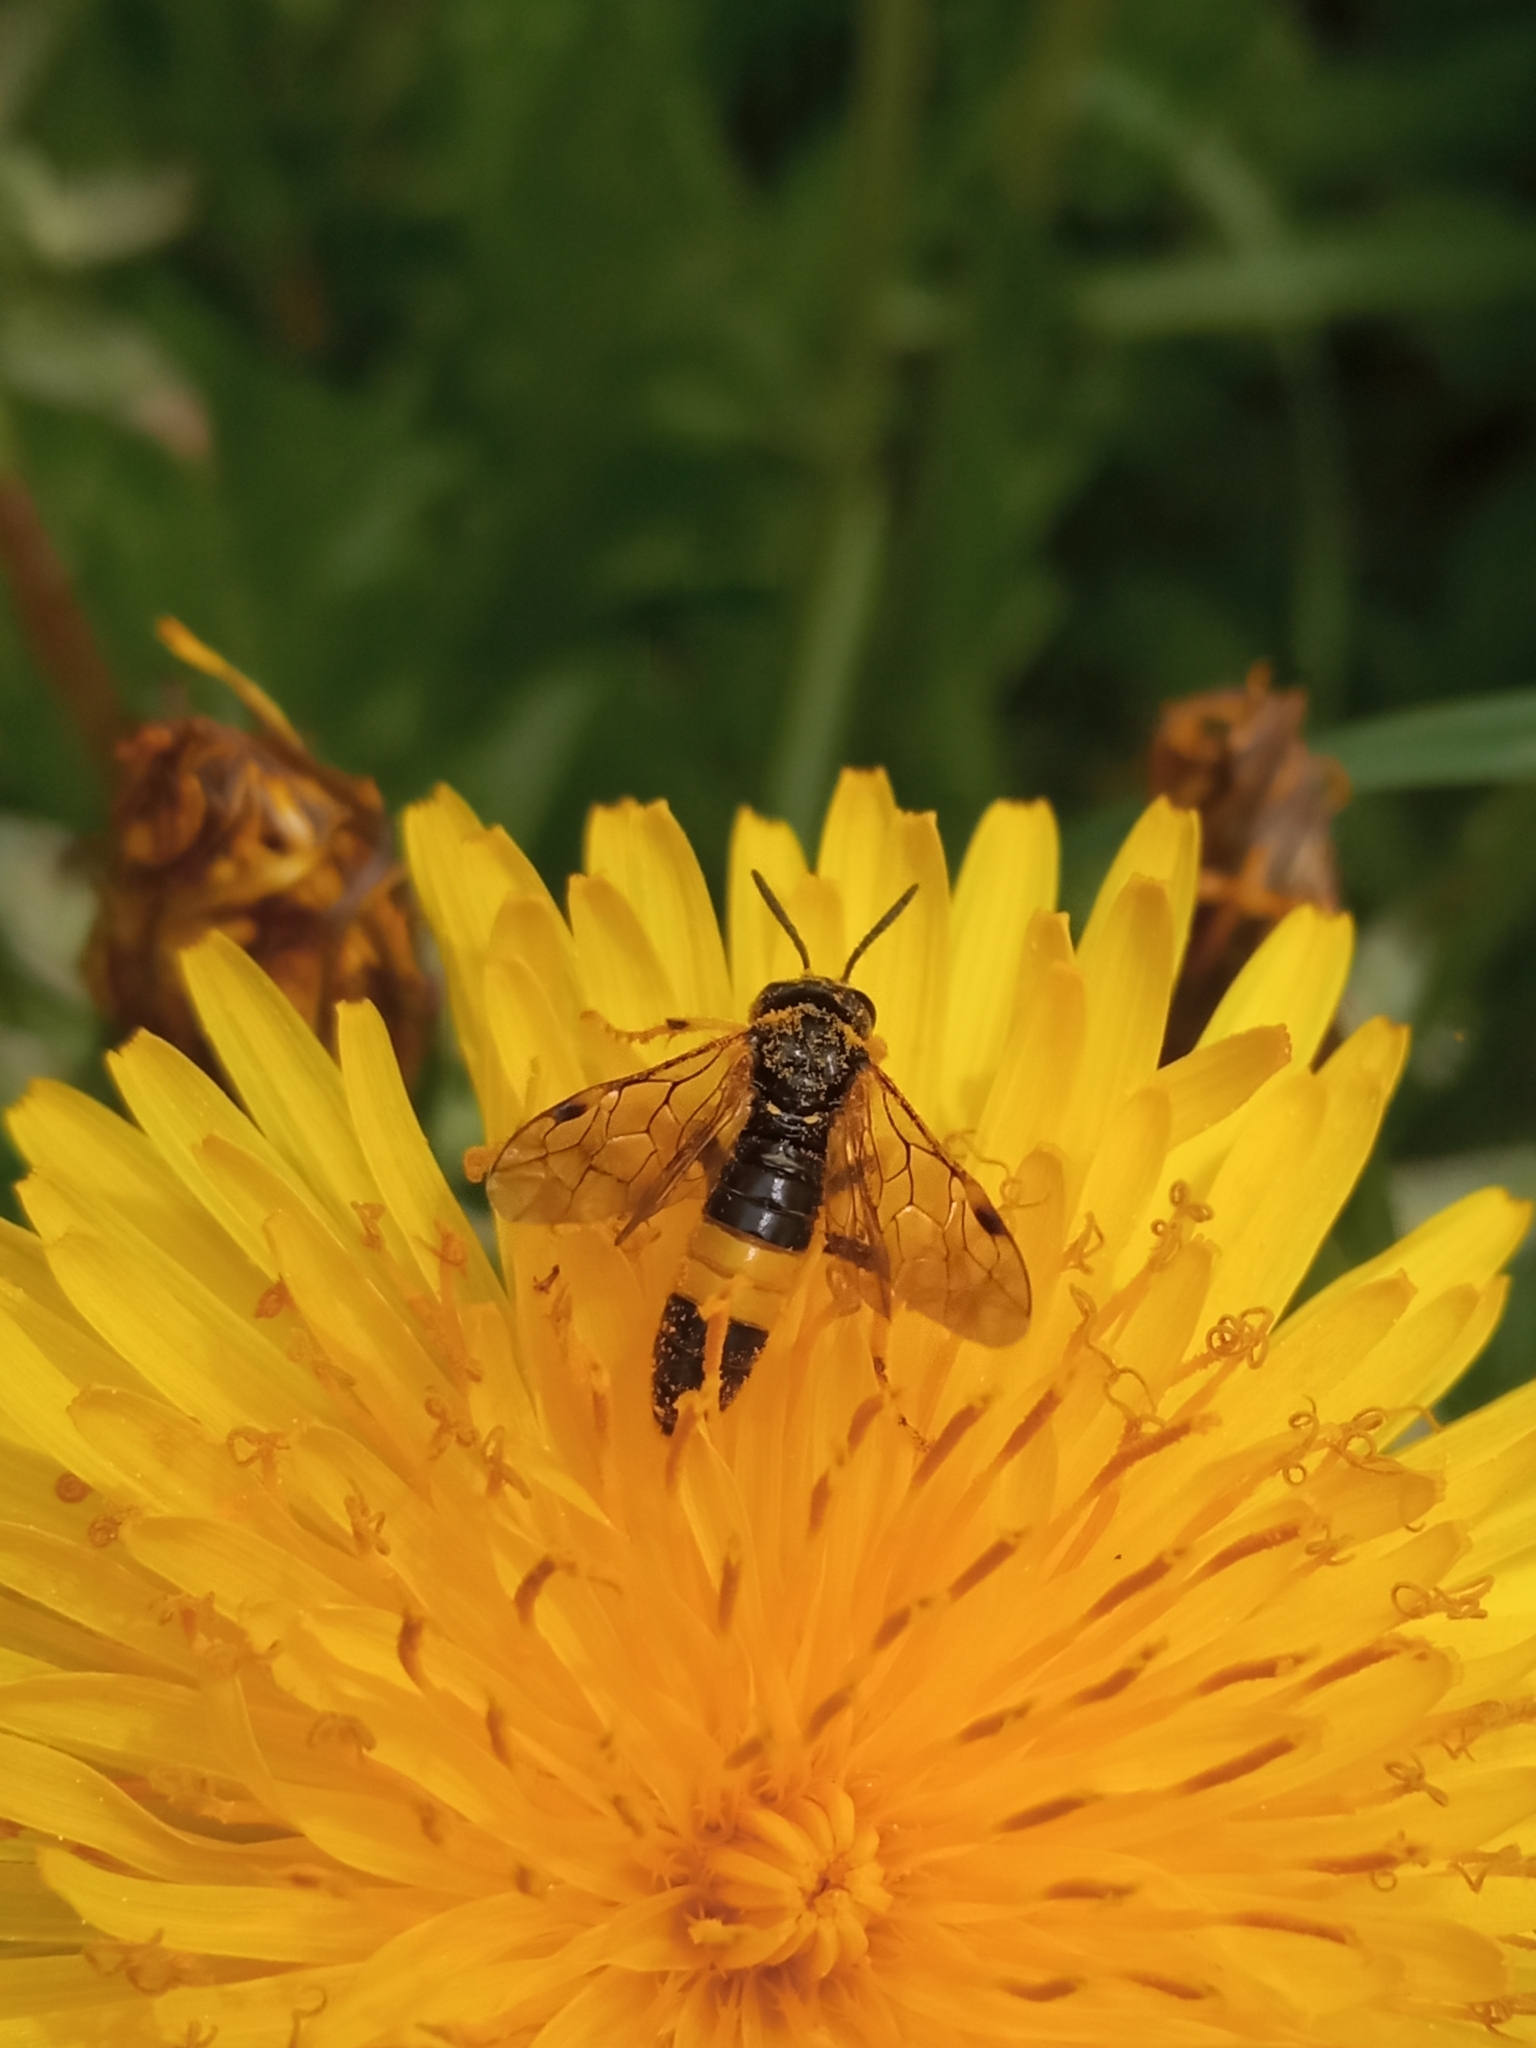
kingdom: Animalia
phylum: Arthropoda
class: Insecta
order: Hymenoptera
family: Tenthredinidae
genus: Paratenthredo
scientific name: Paratenthredo frauenfeldii
